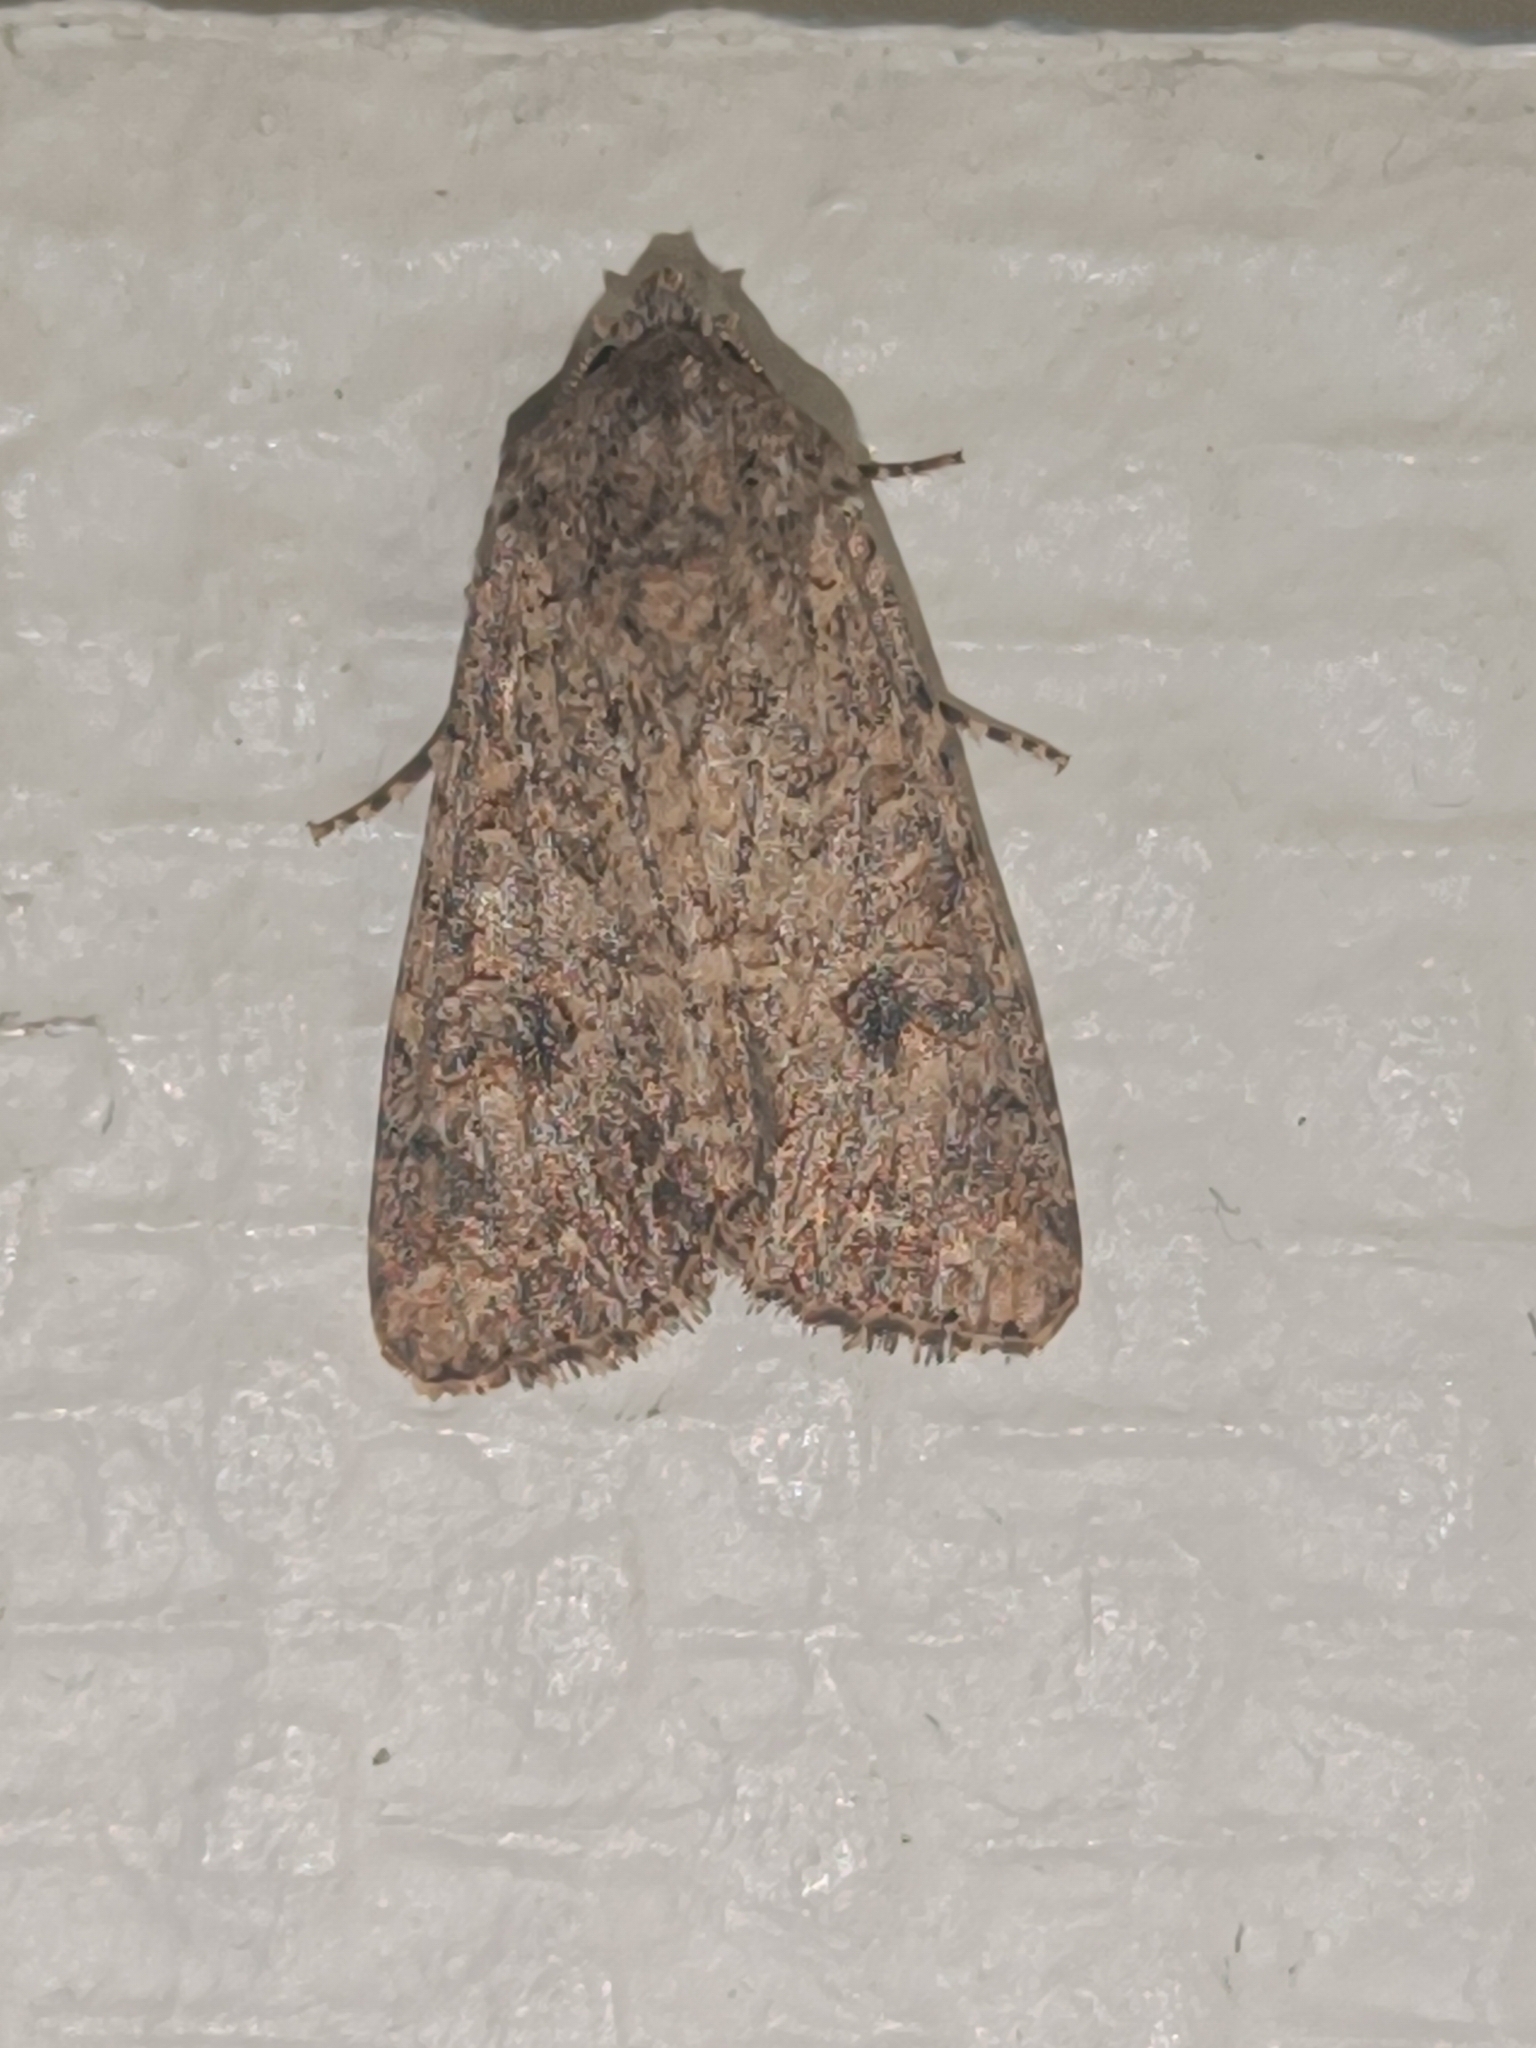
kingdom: Animalia
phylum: Arthropoda
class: Insecta
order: Lepidoptera
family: Noctuidae
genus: Anarta
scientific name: Anarta trifolii
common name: Clover cutworm moth
